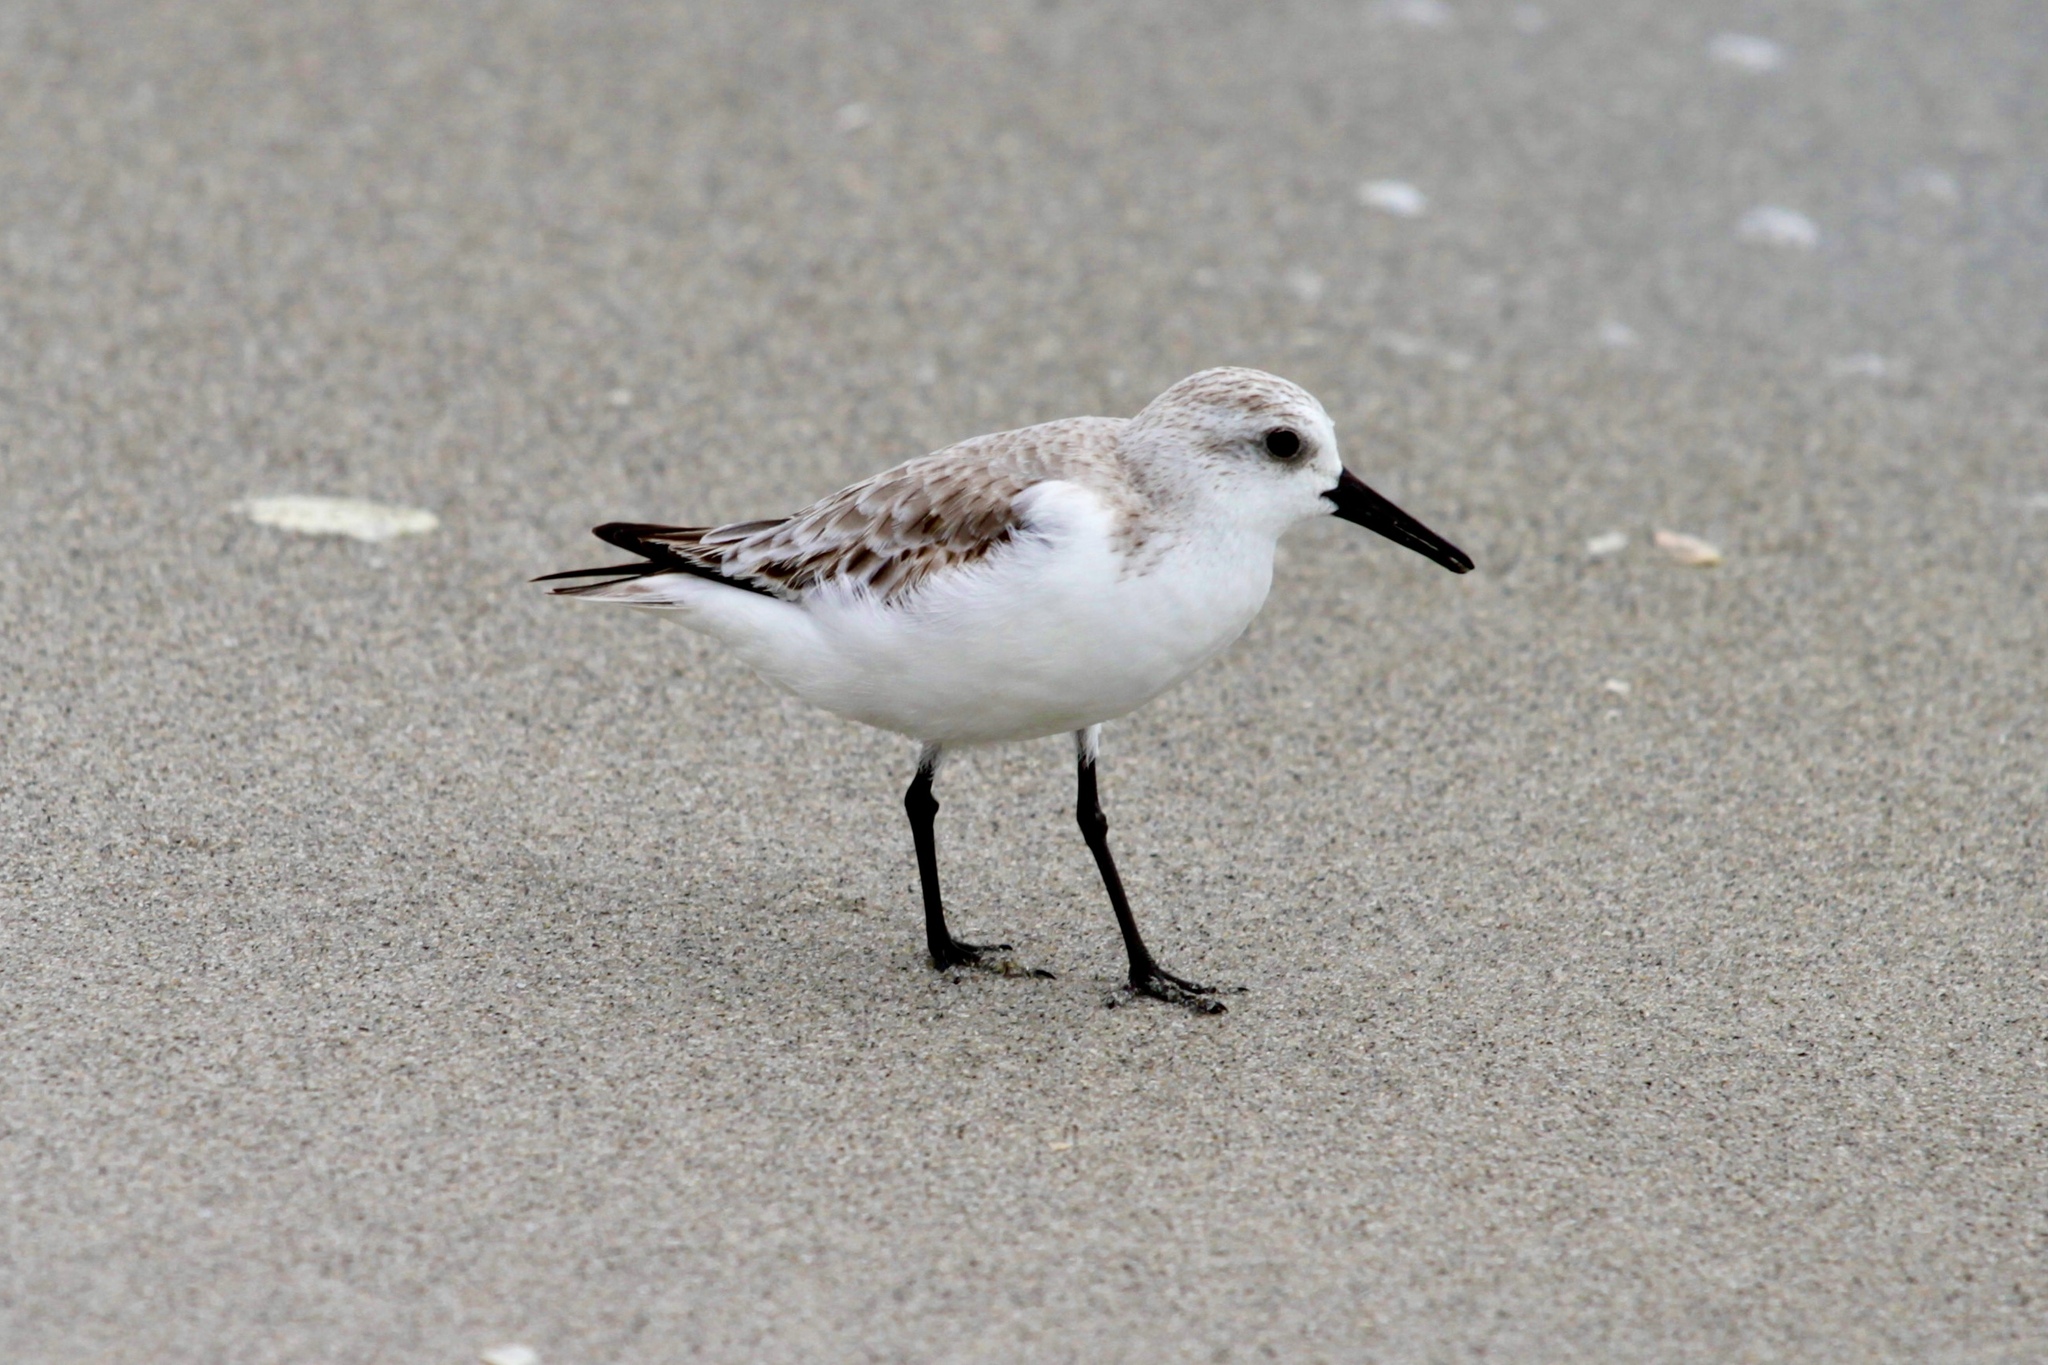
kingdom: Animalia
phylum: Chordata
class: Aves
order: Charadriiformes
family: Scolopacidae
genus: Calidris
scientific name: Calidris alba
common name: Sanderling
